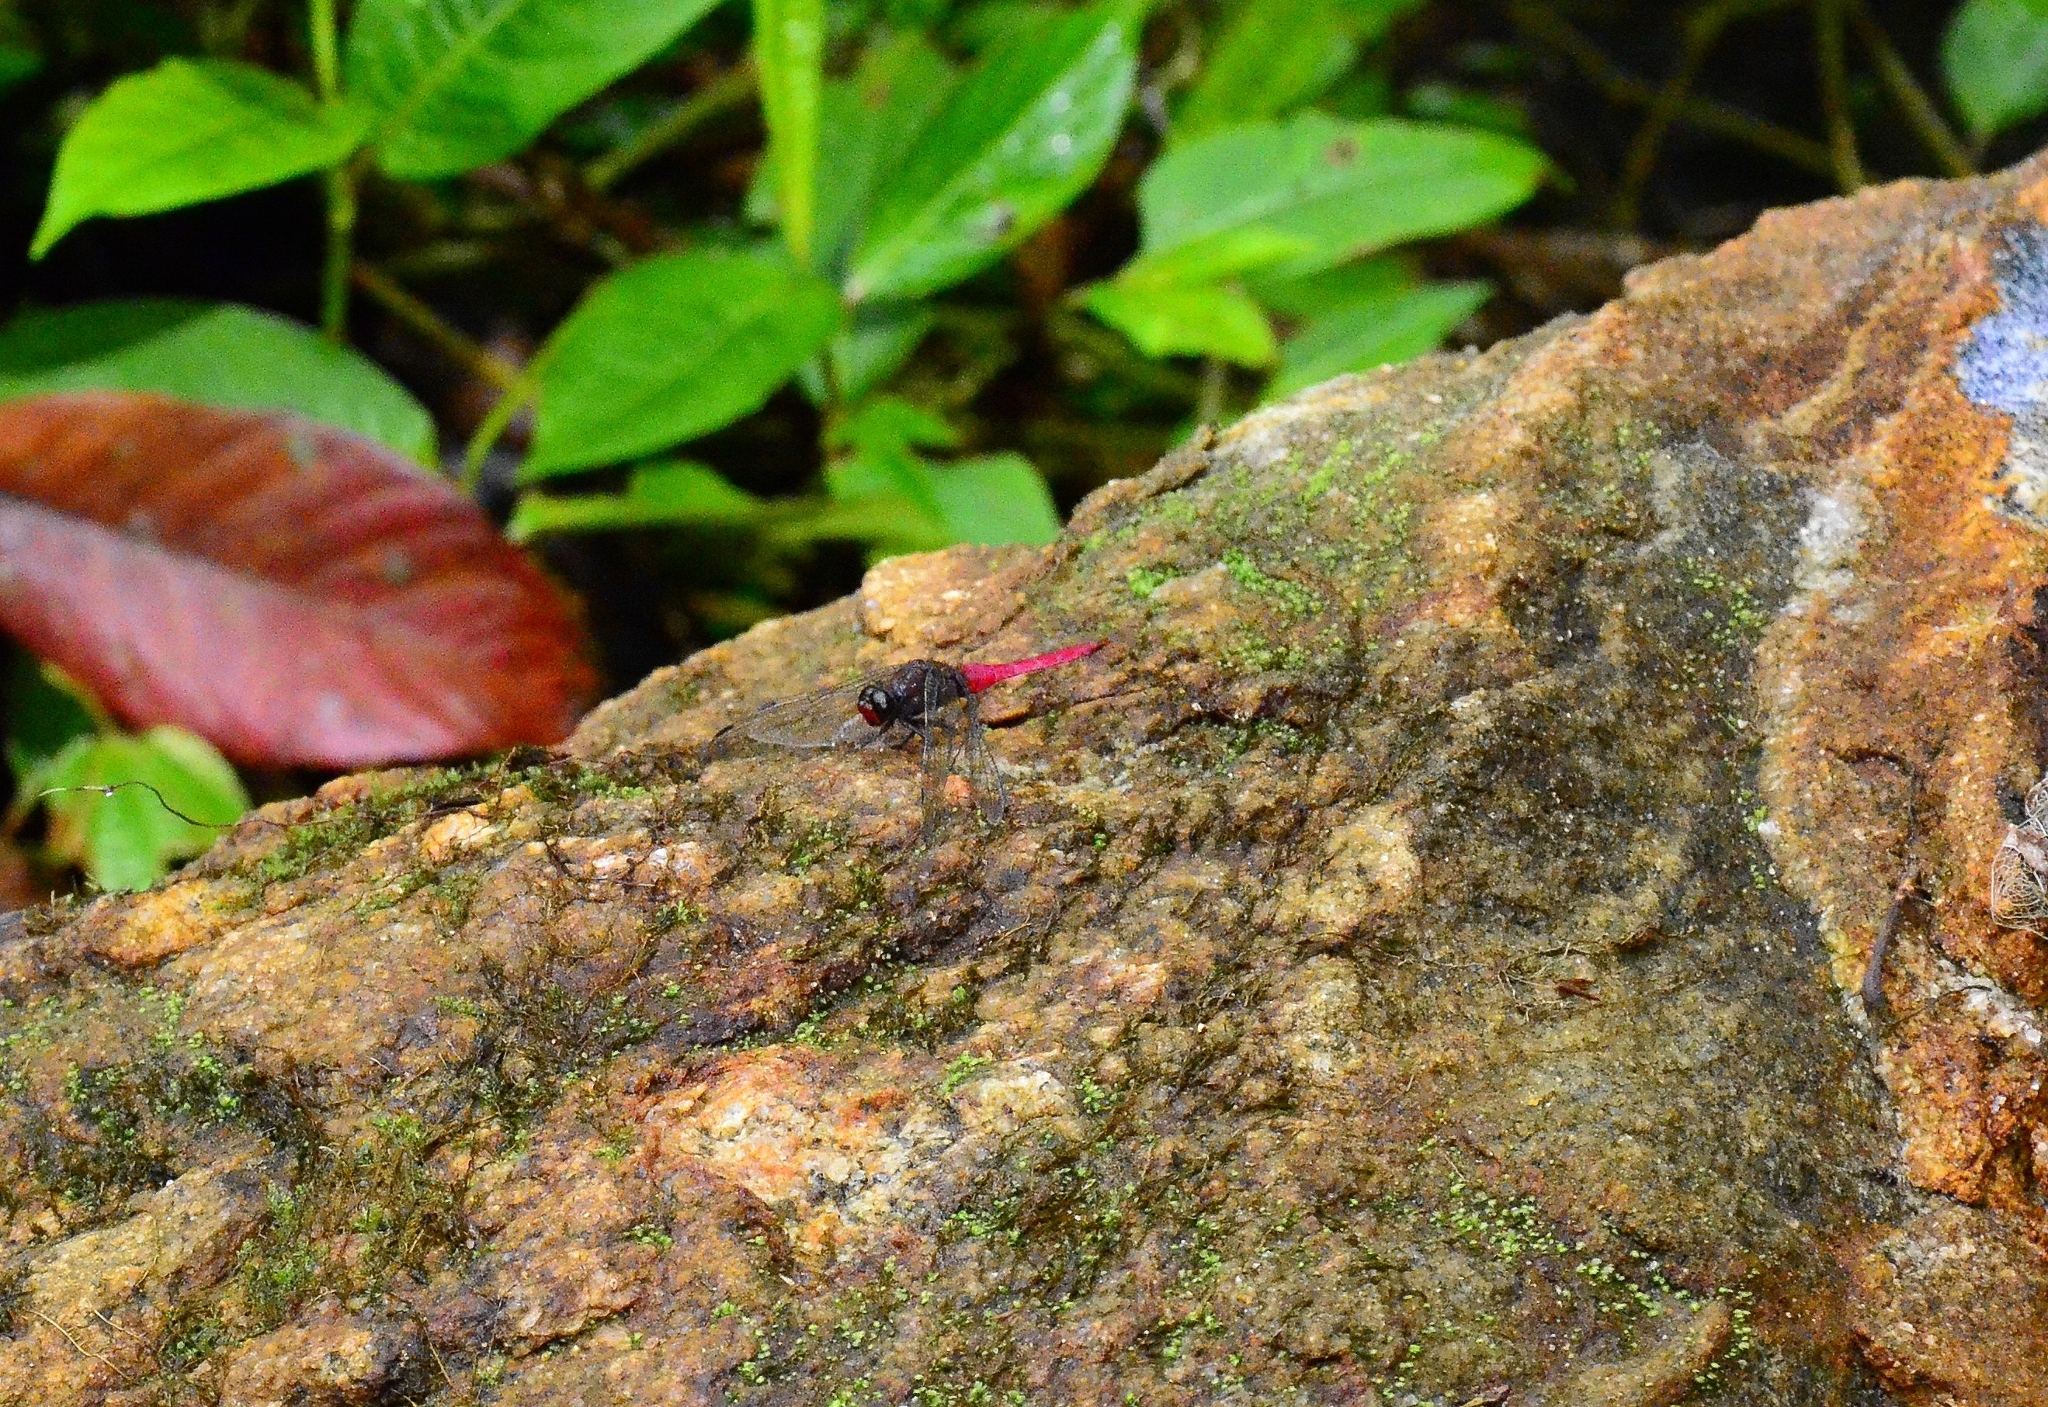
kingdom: Animalia
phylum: Arthropoda
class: Insecta
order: Odonata
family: Libellulidae
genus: Orthetrum
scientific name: Orthetrum pruinosum
